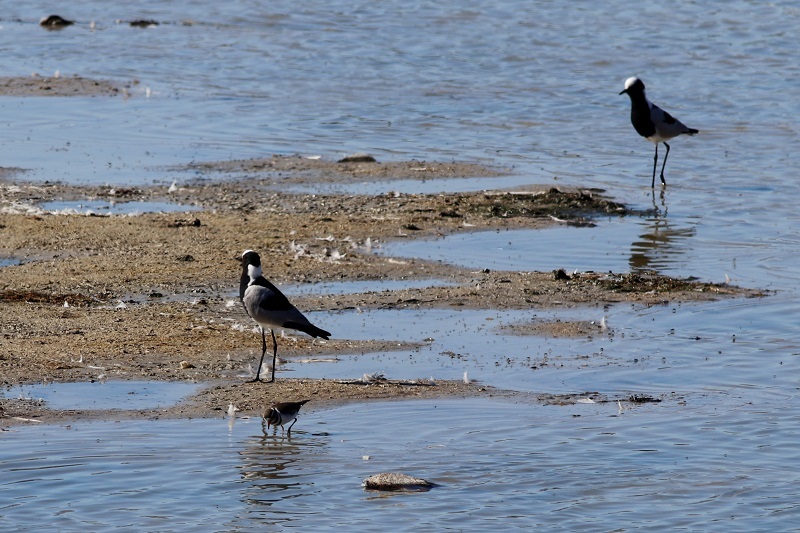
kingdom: Animalia
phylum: Chordata
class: Aves
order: Charadriiformes
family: Charadriidae
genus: Vanellus
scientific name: Vanellus armatus
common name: Blacksmith lapwing
